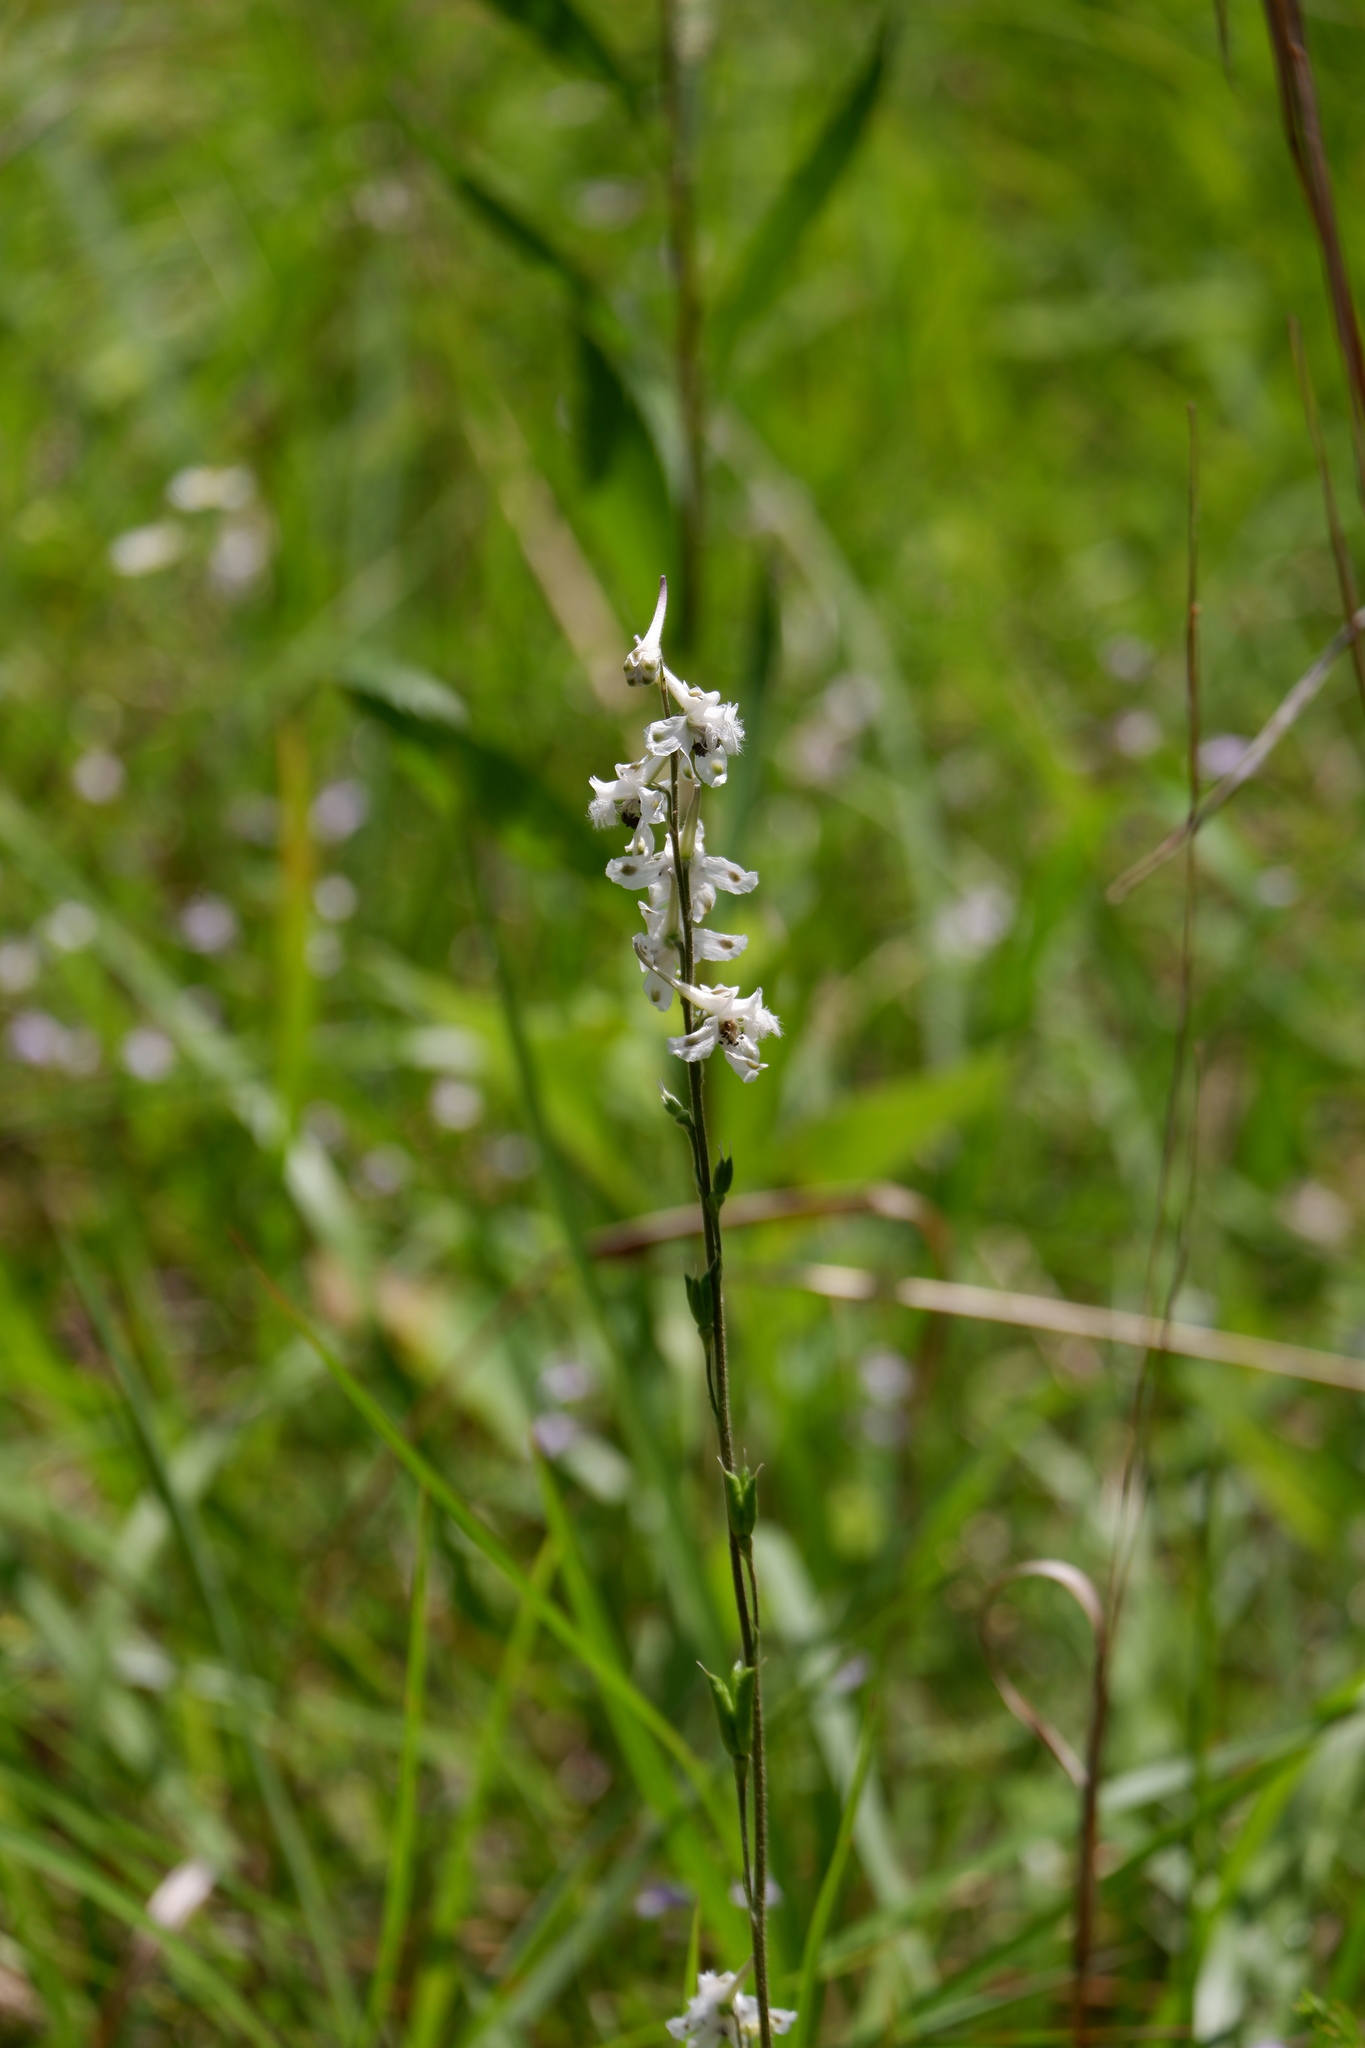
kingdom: Plantae
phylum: Tracheophyta
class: Magnoliopsida
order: Ranunculales
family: Ranunculaceae
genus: Delphinium
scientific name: Delphinium carolinianum
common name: Carolina larkspur
